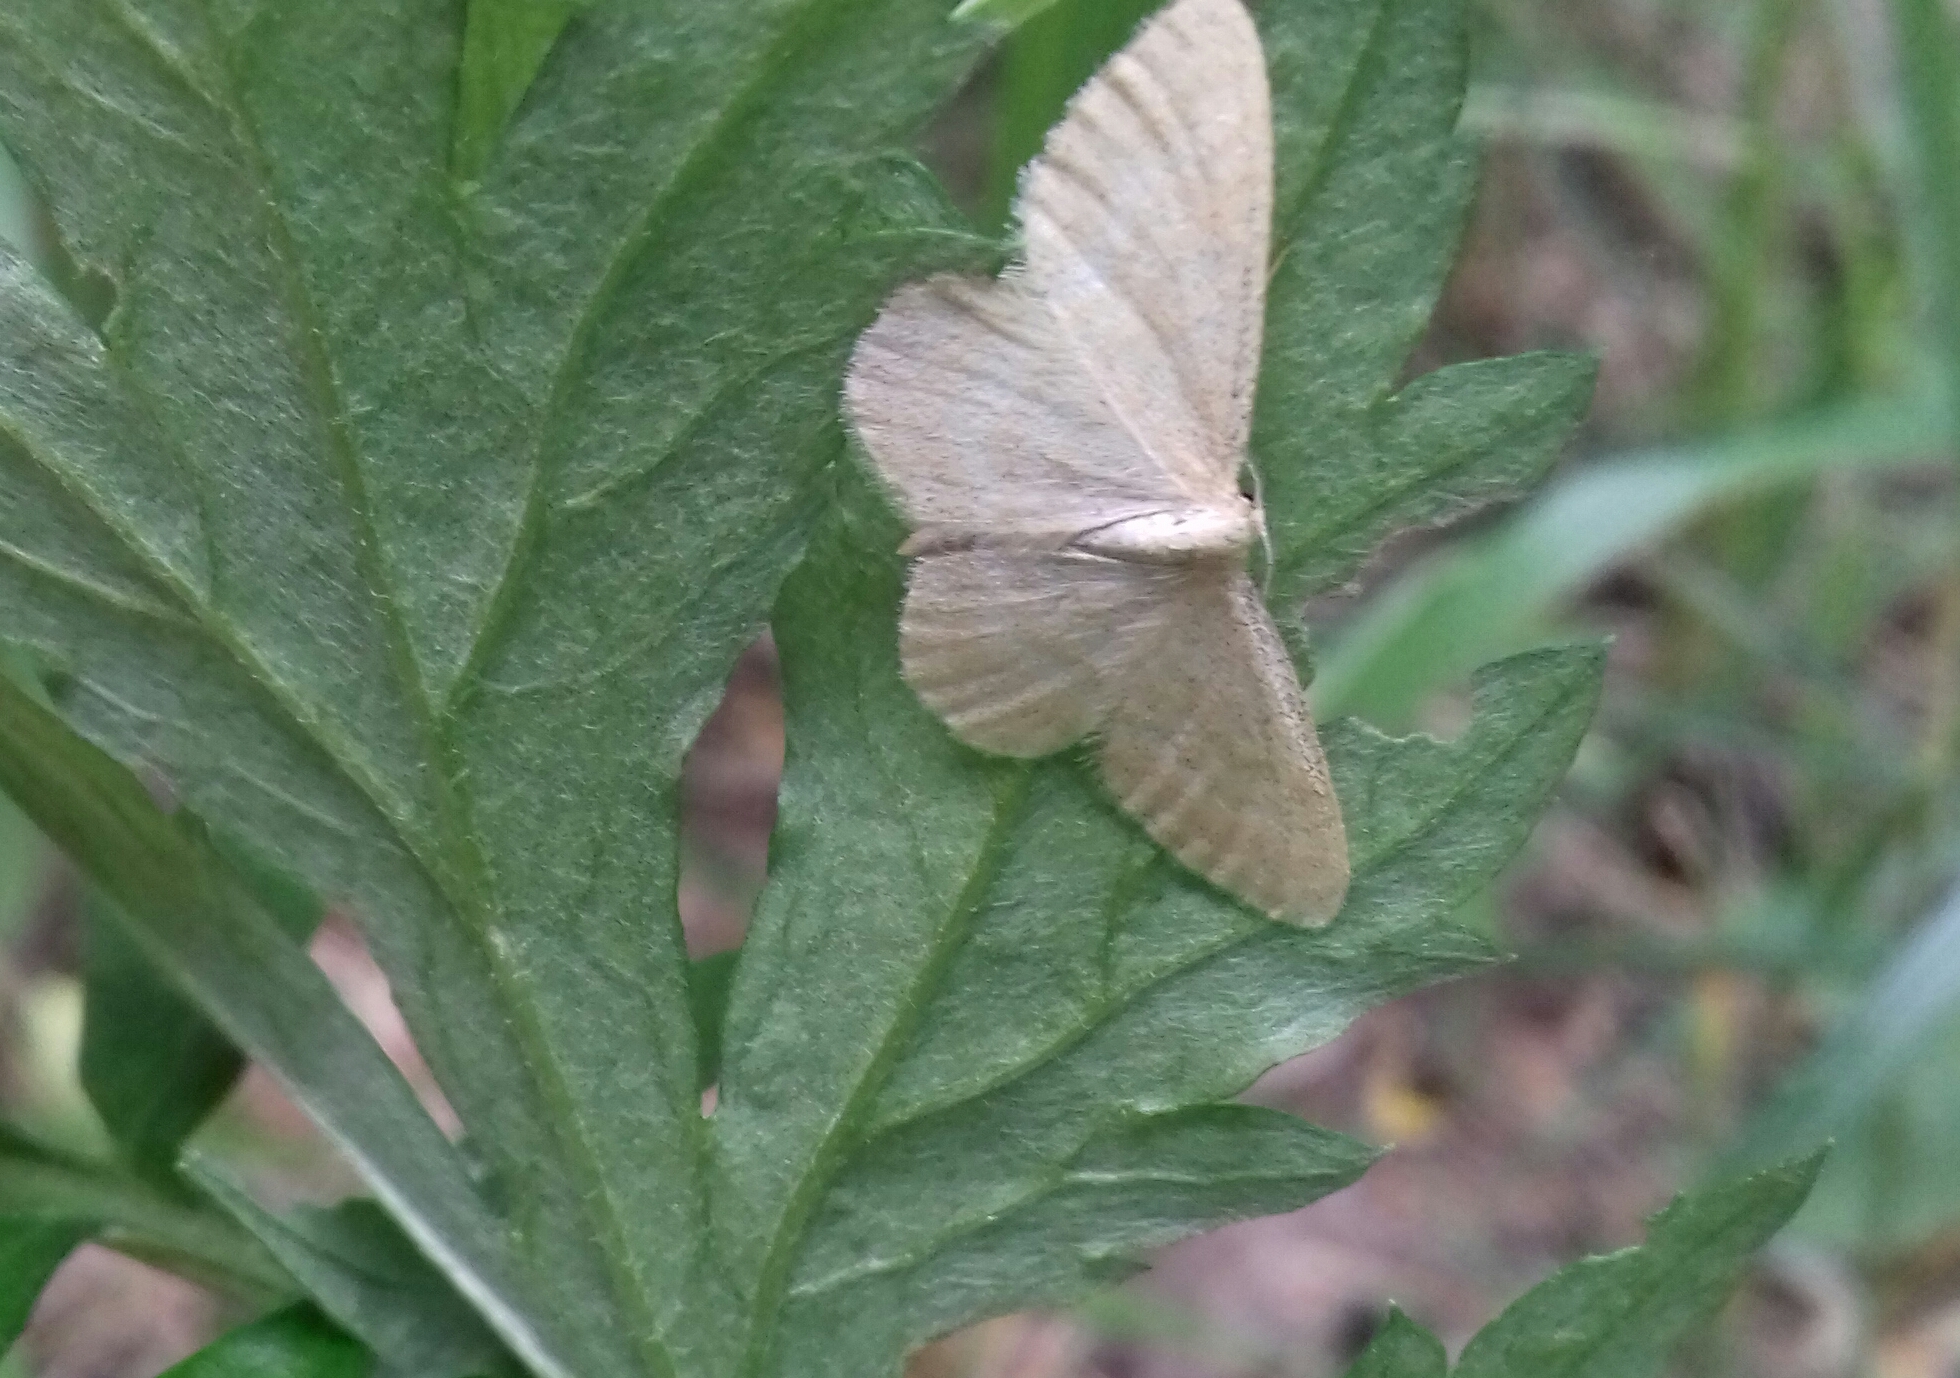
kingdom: Animalia
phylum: Arthropoda
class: Insecta
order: Lepidoptera
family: Geometridae
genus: Idaea
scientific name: Idaea pallidata
